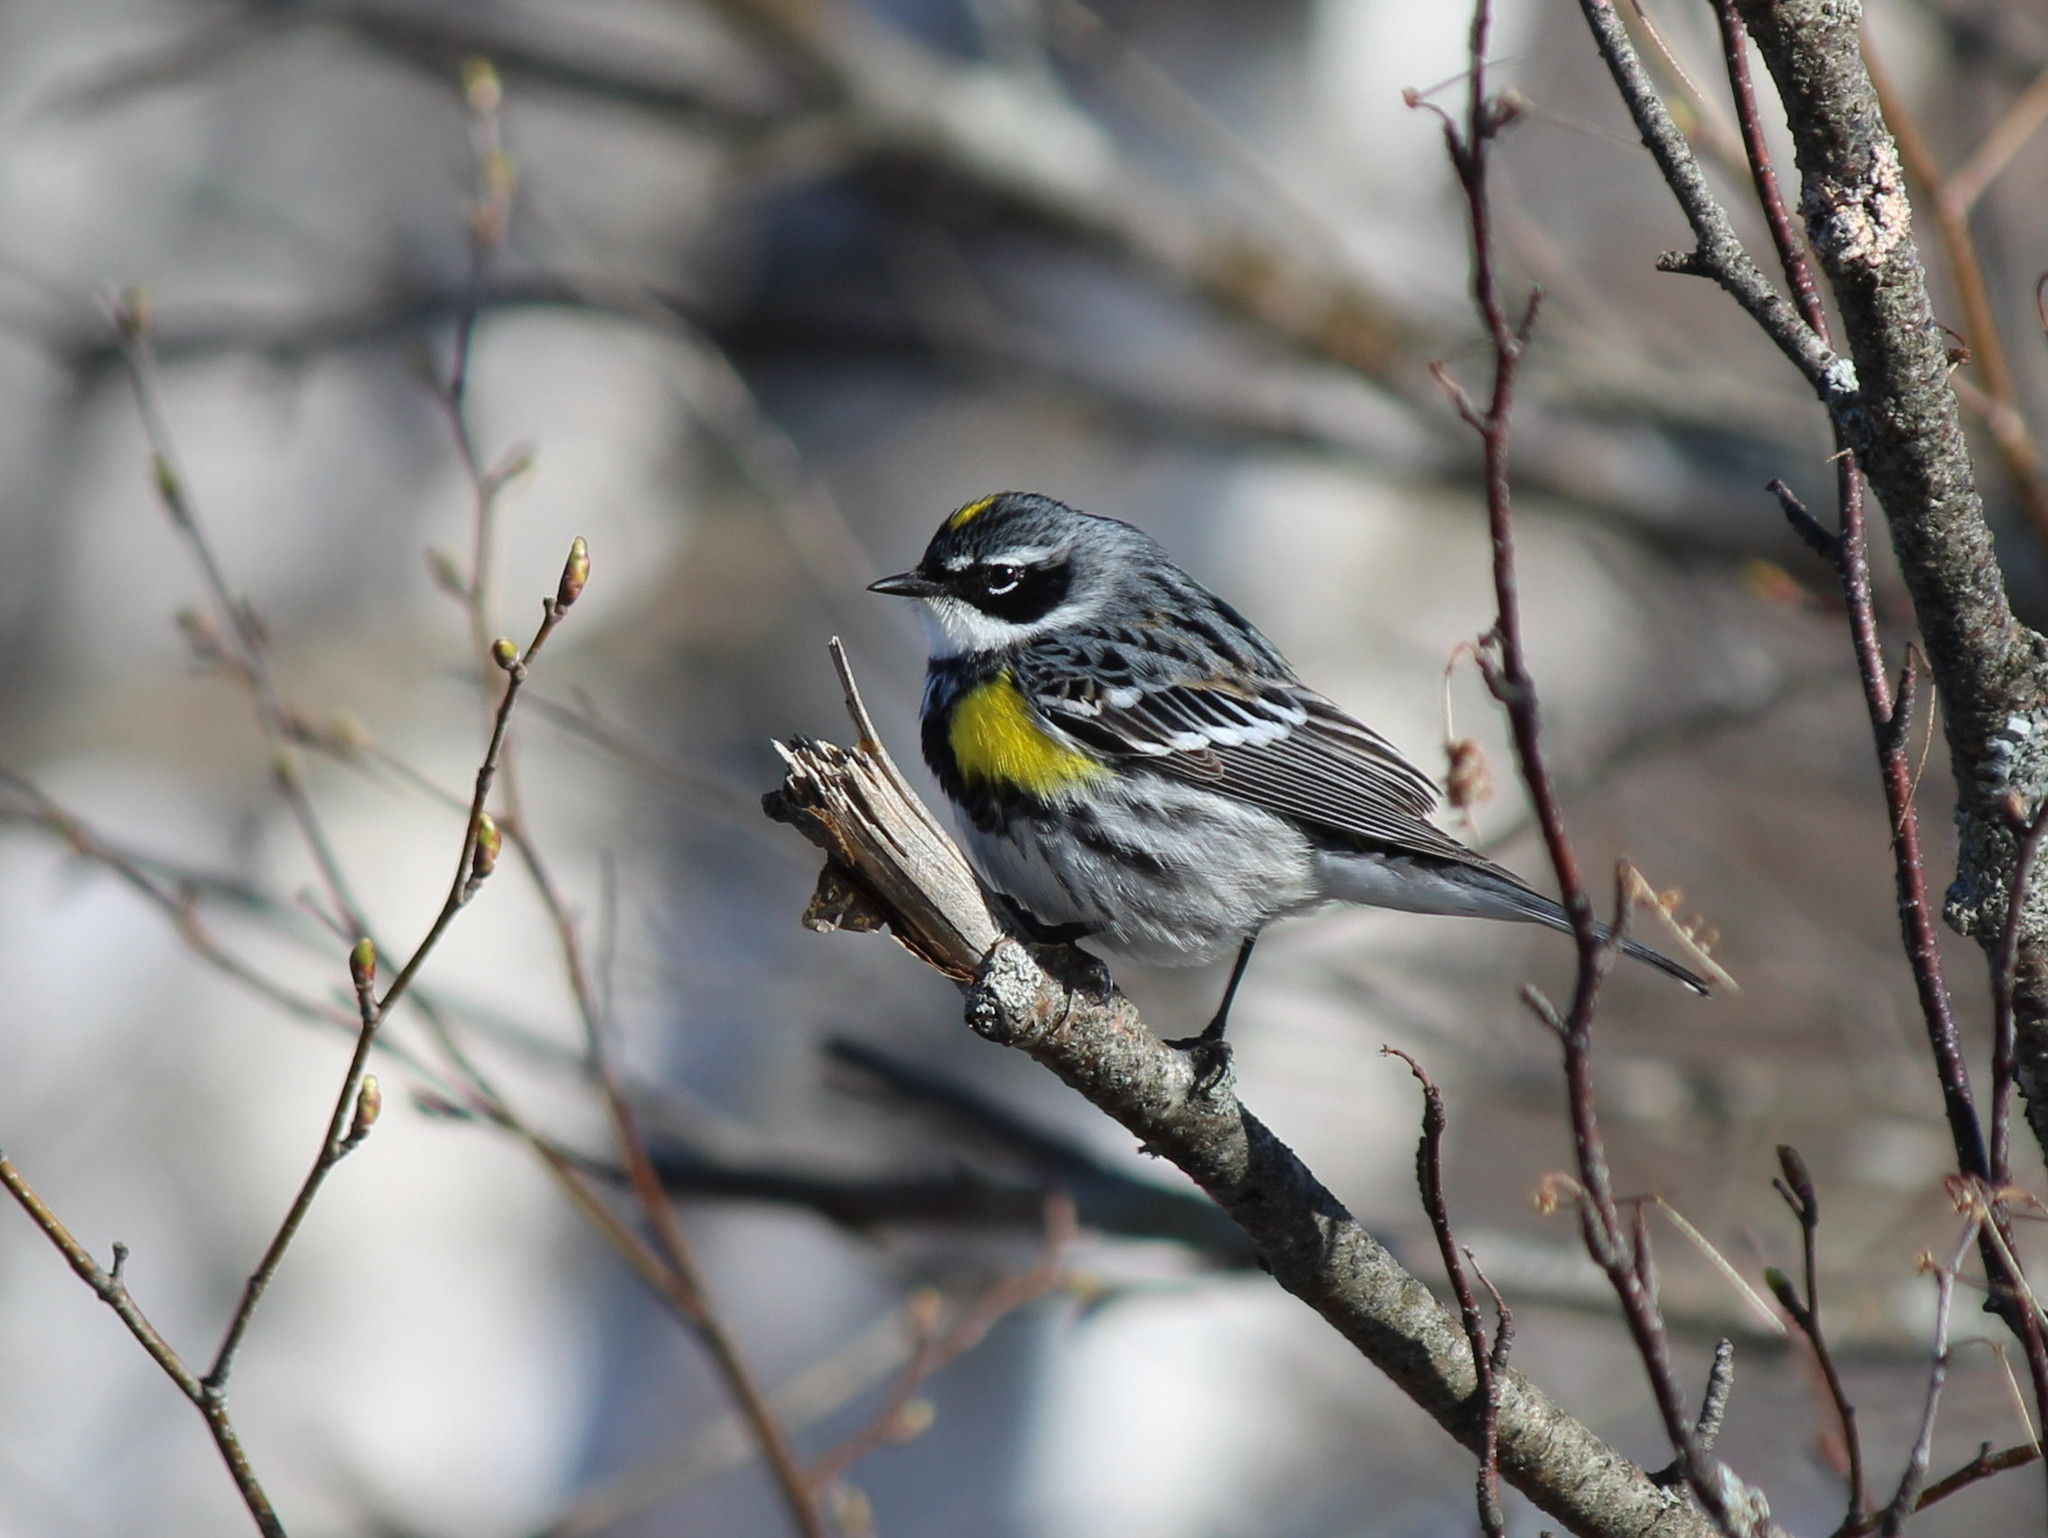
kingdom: Animalia
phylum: Chordata
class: Aves
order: Passeriformes
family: Parulidae
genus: Setophaga
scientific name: Setophaga coronata
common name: Myrtle warbler
